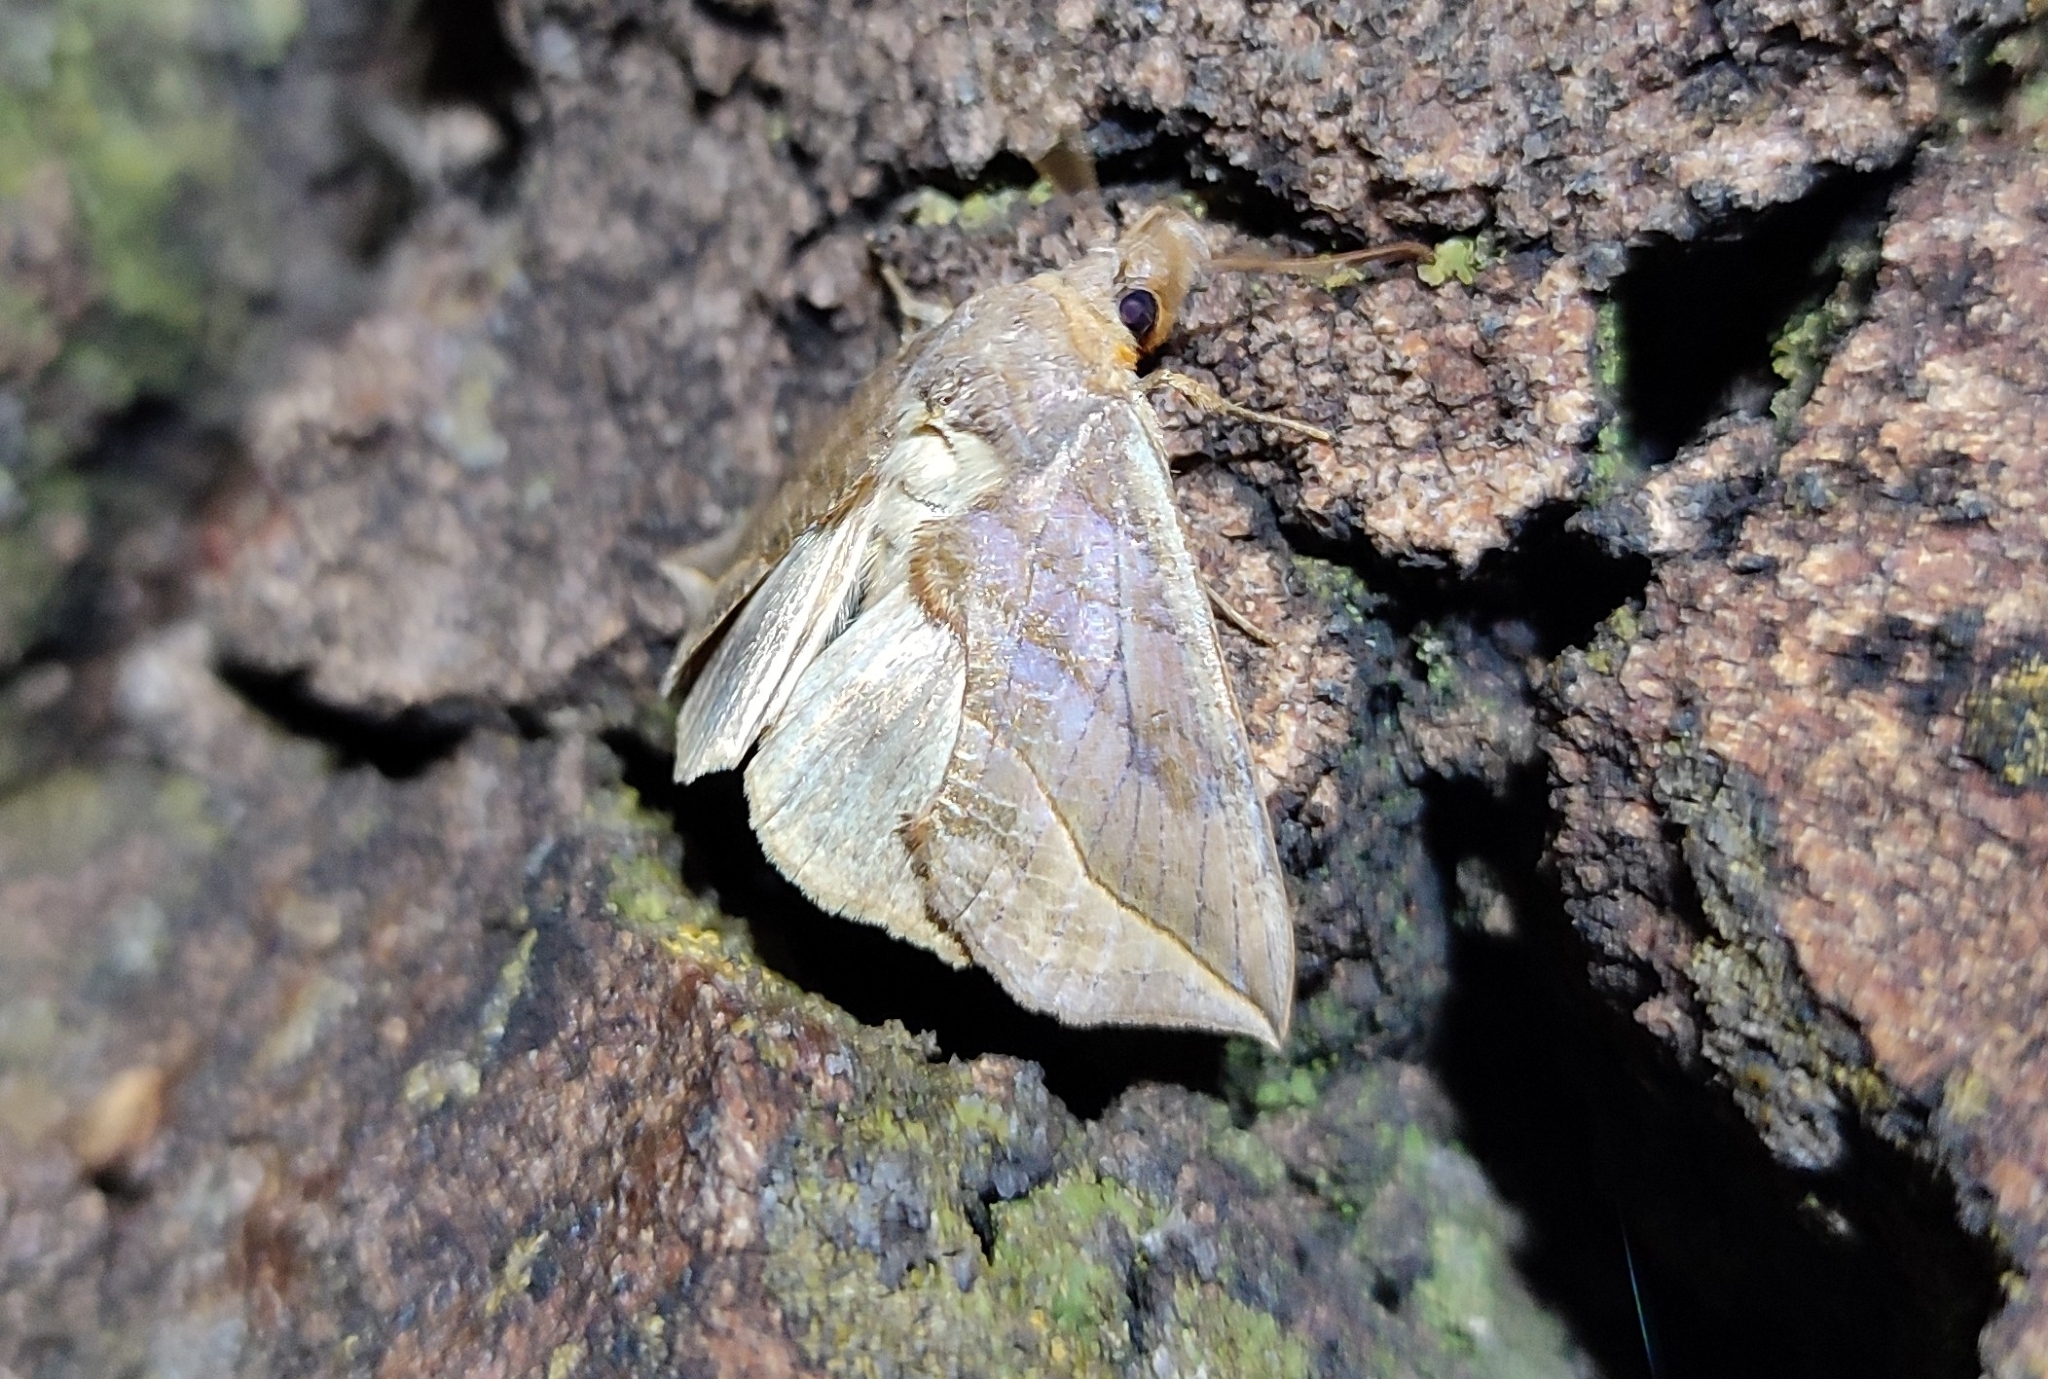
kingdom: Animalia
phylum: Arthropoda
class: Insecta
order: Lepidoptera
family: Erebidae
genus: Calyptra
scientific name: Calyptra thalictri
